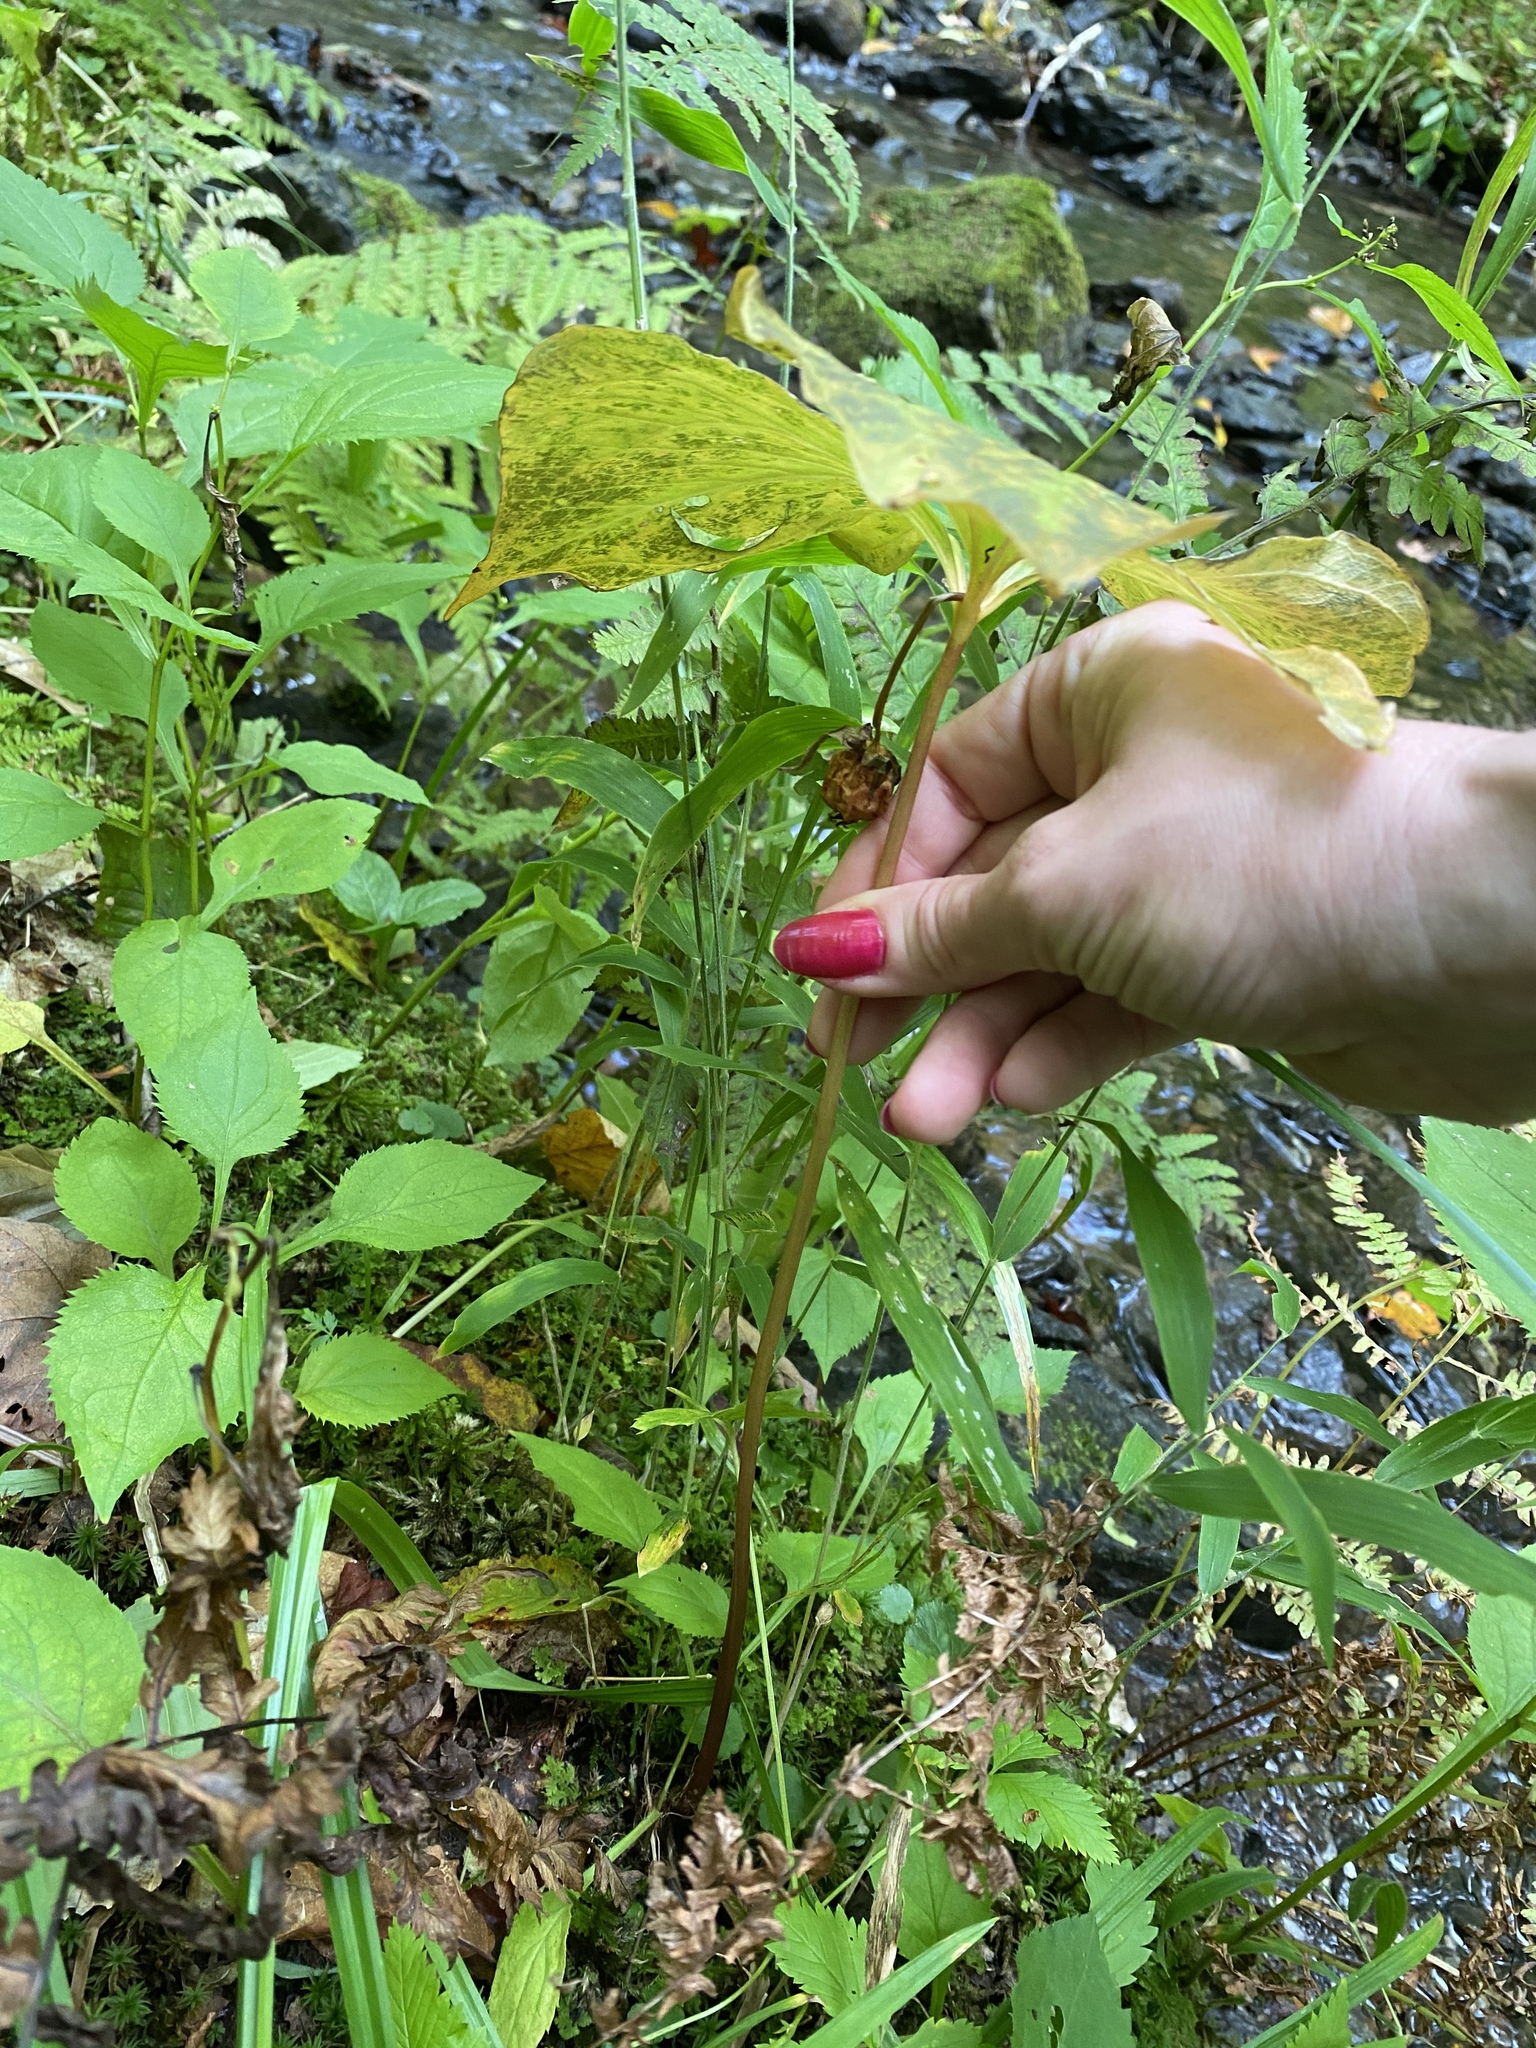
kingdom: Plantae
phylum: Tracheophyta
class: Liliopsida
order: Liliales
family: Melanthiaceae
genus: Trillium
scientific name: Trillium cernuum
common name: Nodding trillium
